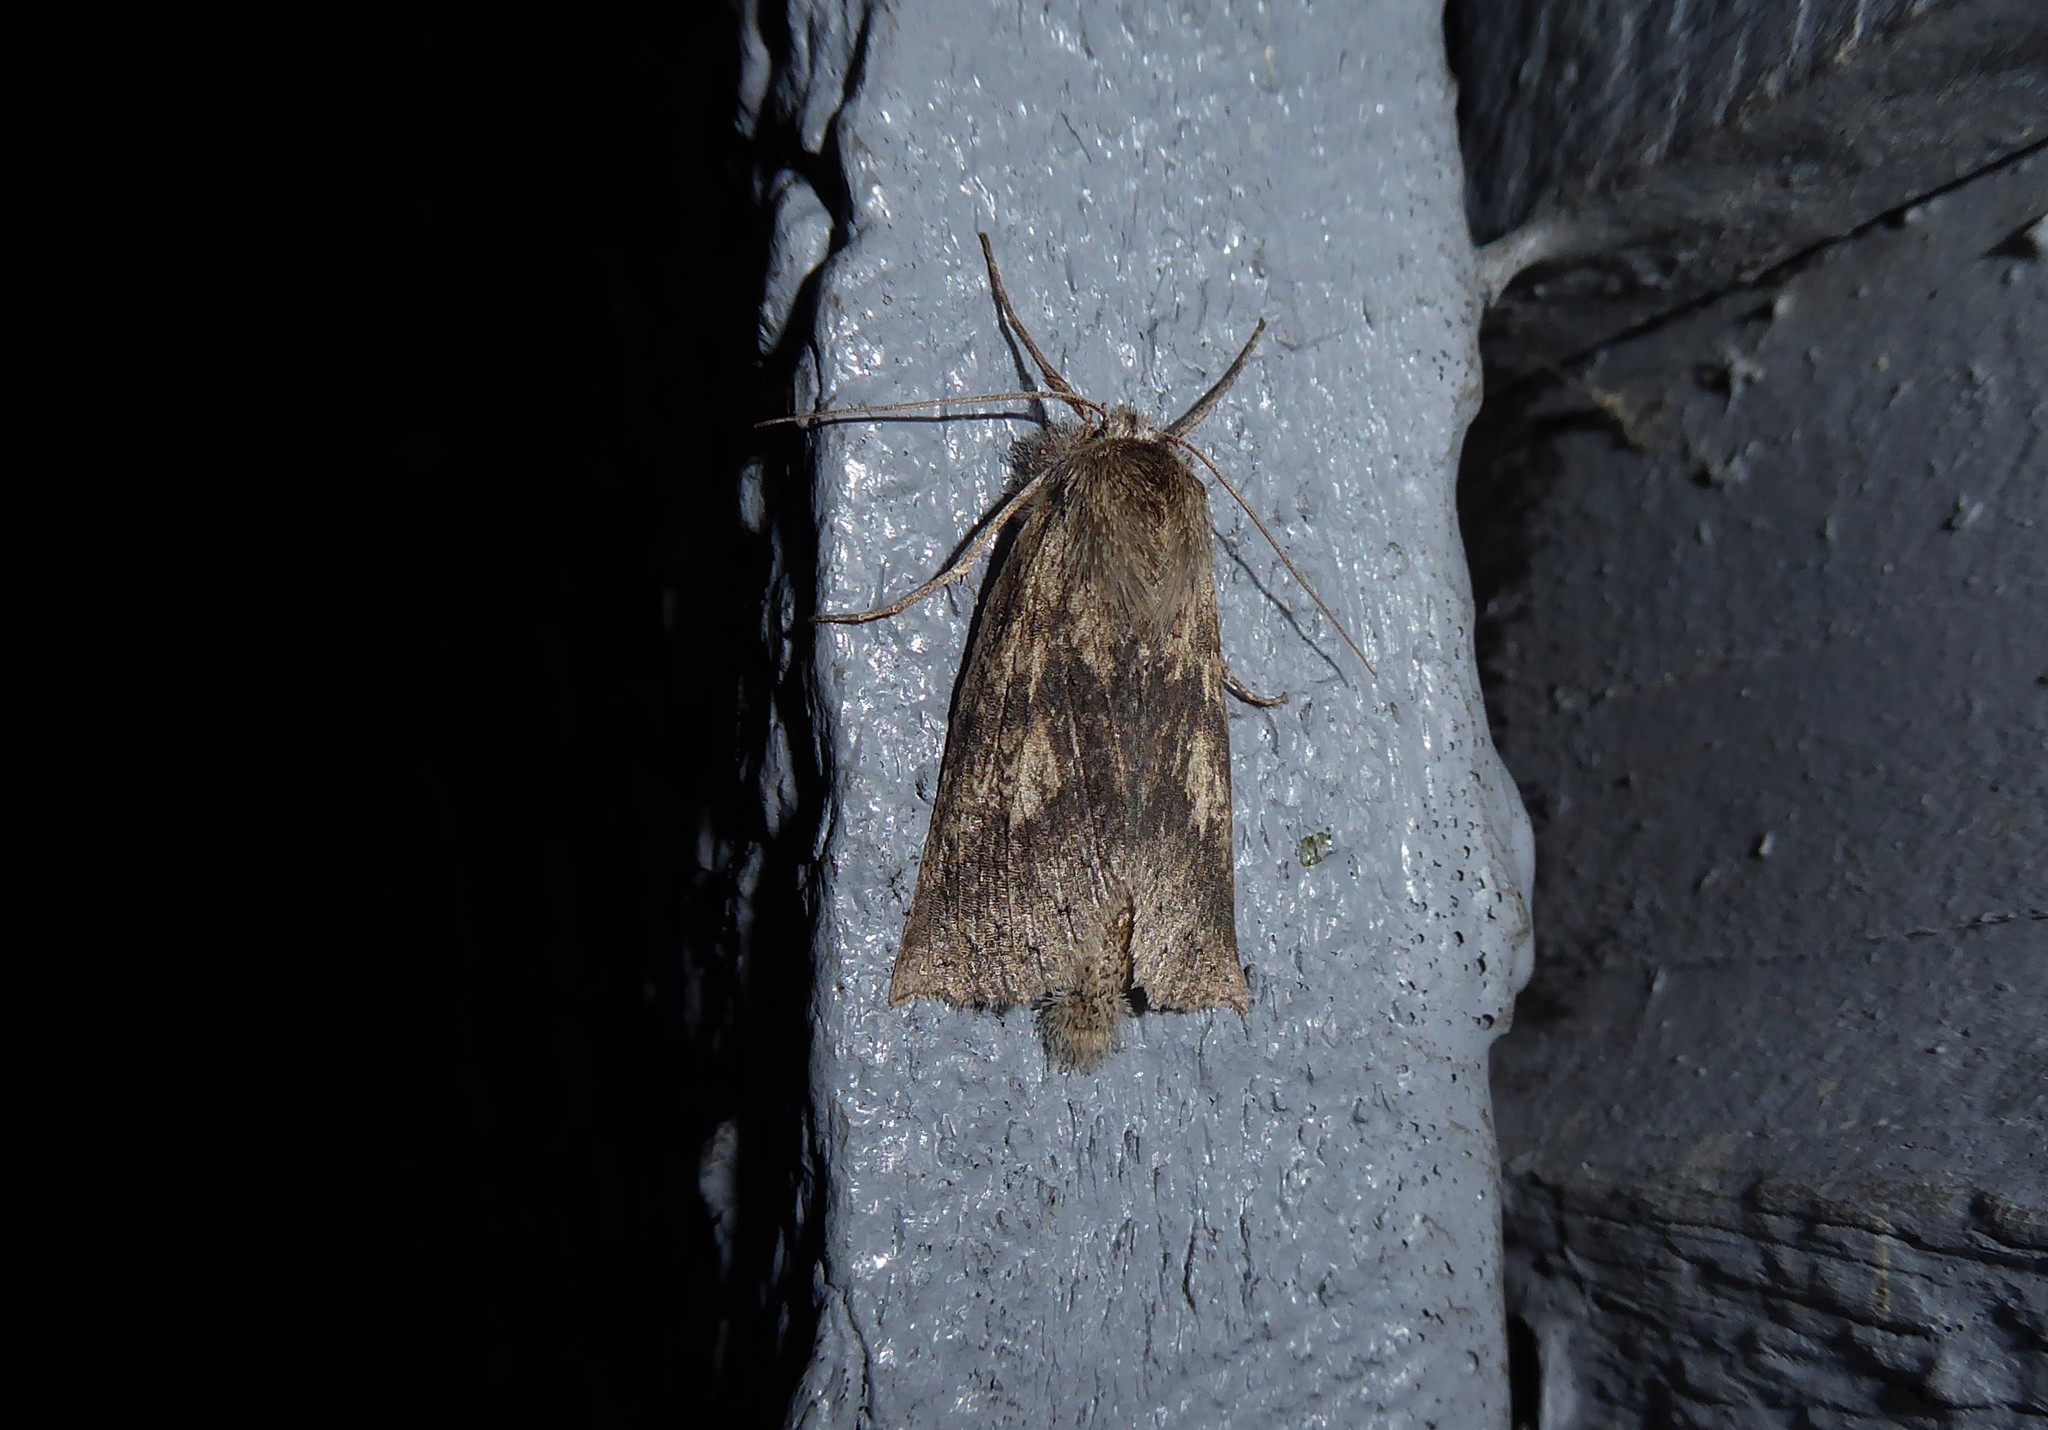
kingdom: Animalia
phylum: Arthropoda
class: Insecta
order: Lepidoptera
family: Geometridae
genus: Declana
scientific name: Declana leptomera
